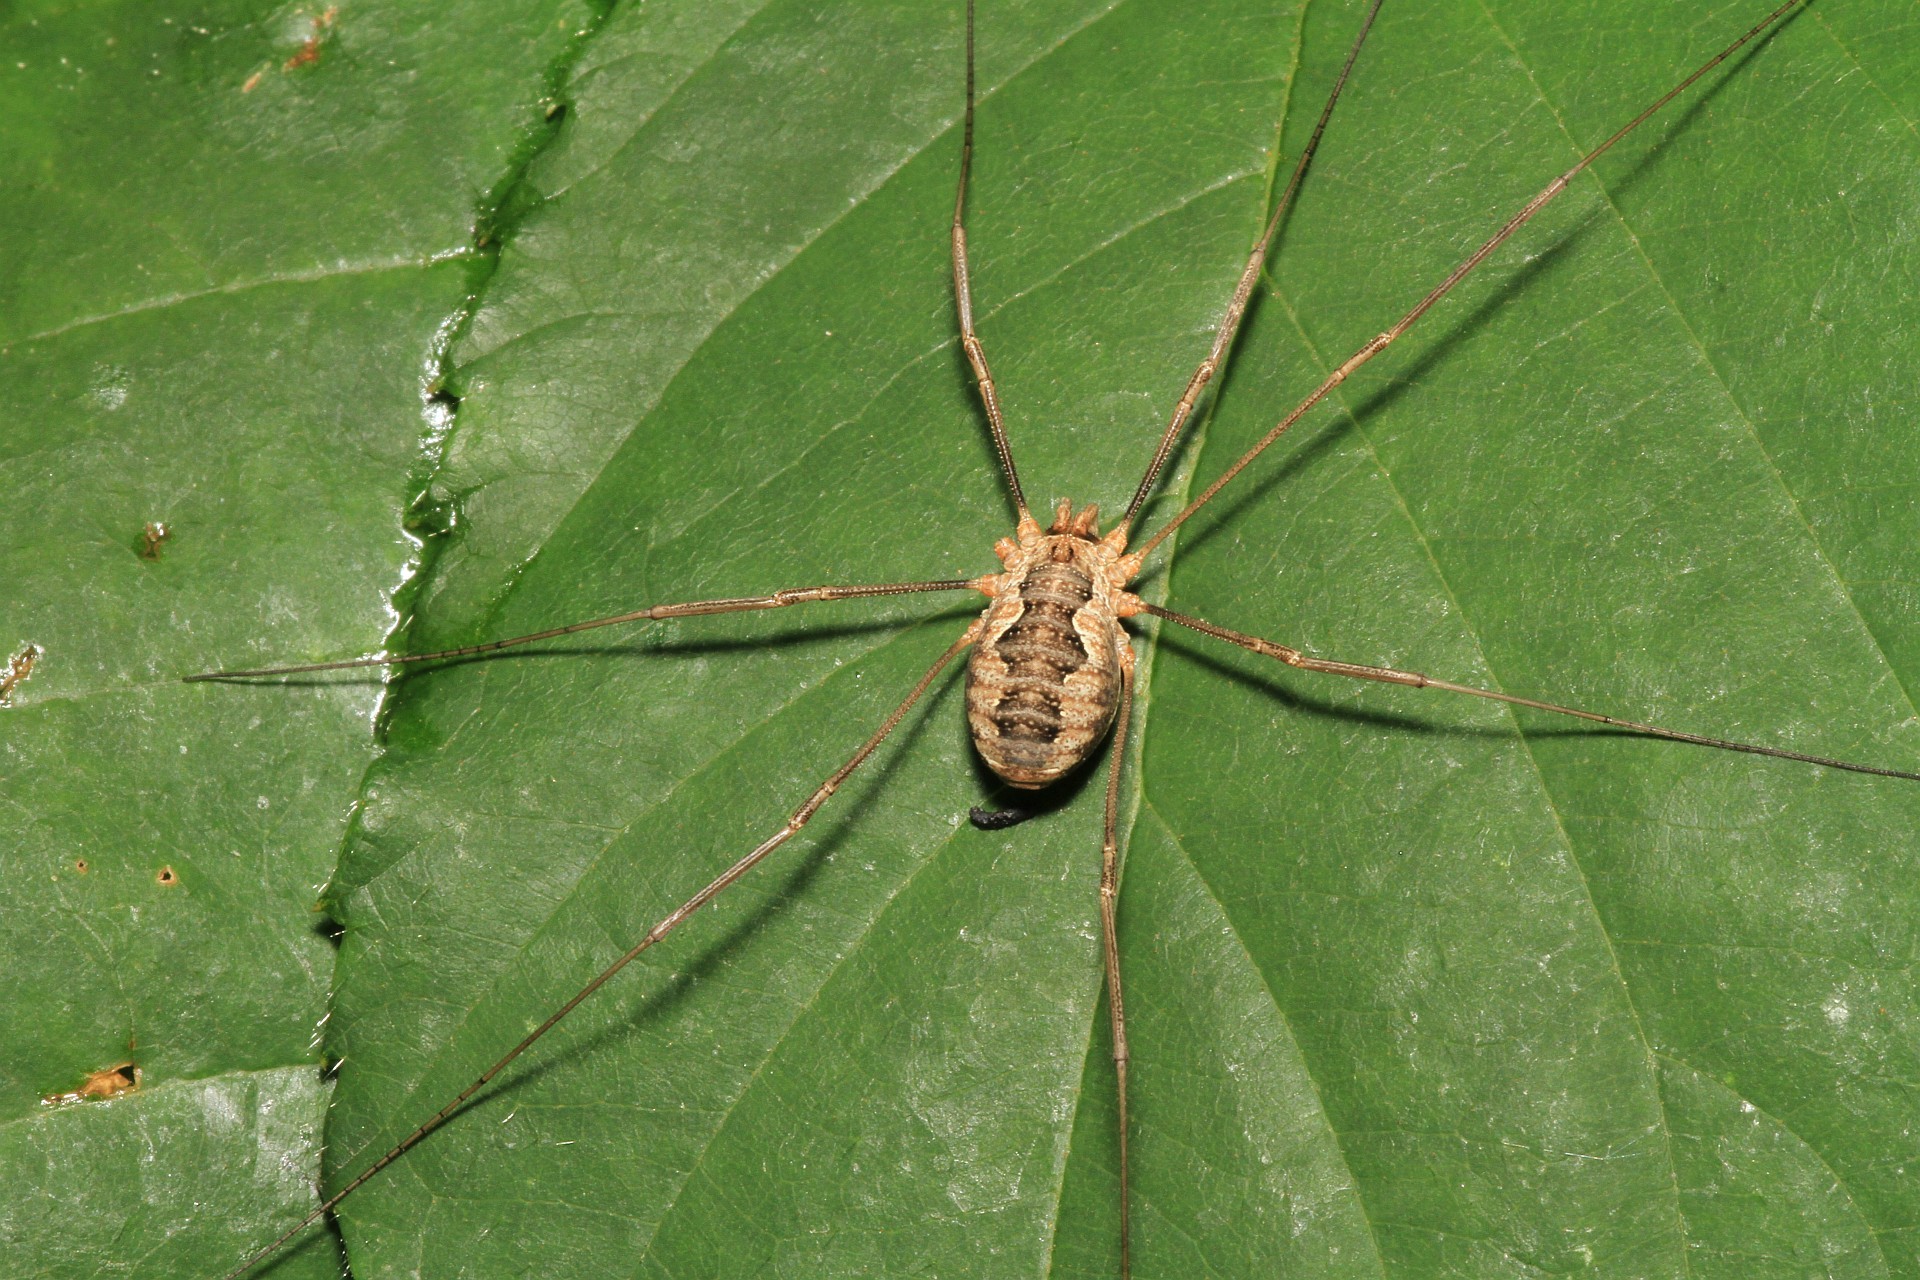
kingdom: Animalia
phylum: Arthropoda
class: Arachnida
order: Opiliones
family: Phalangiidae
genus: Phalangium
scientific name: Phalangium opilio
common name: Daddy longleg
